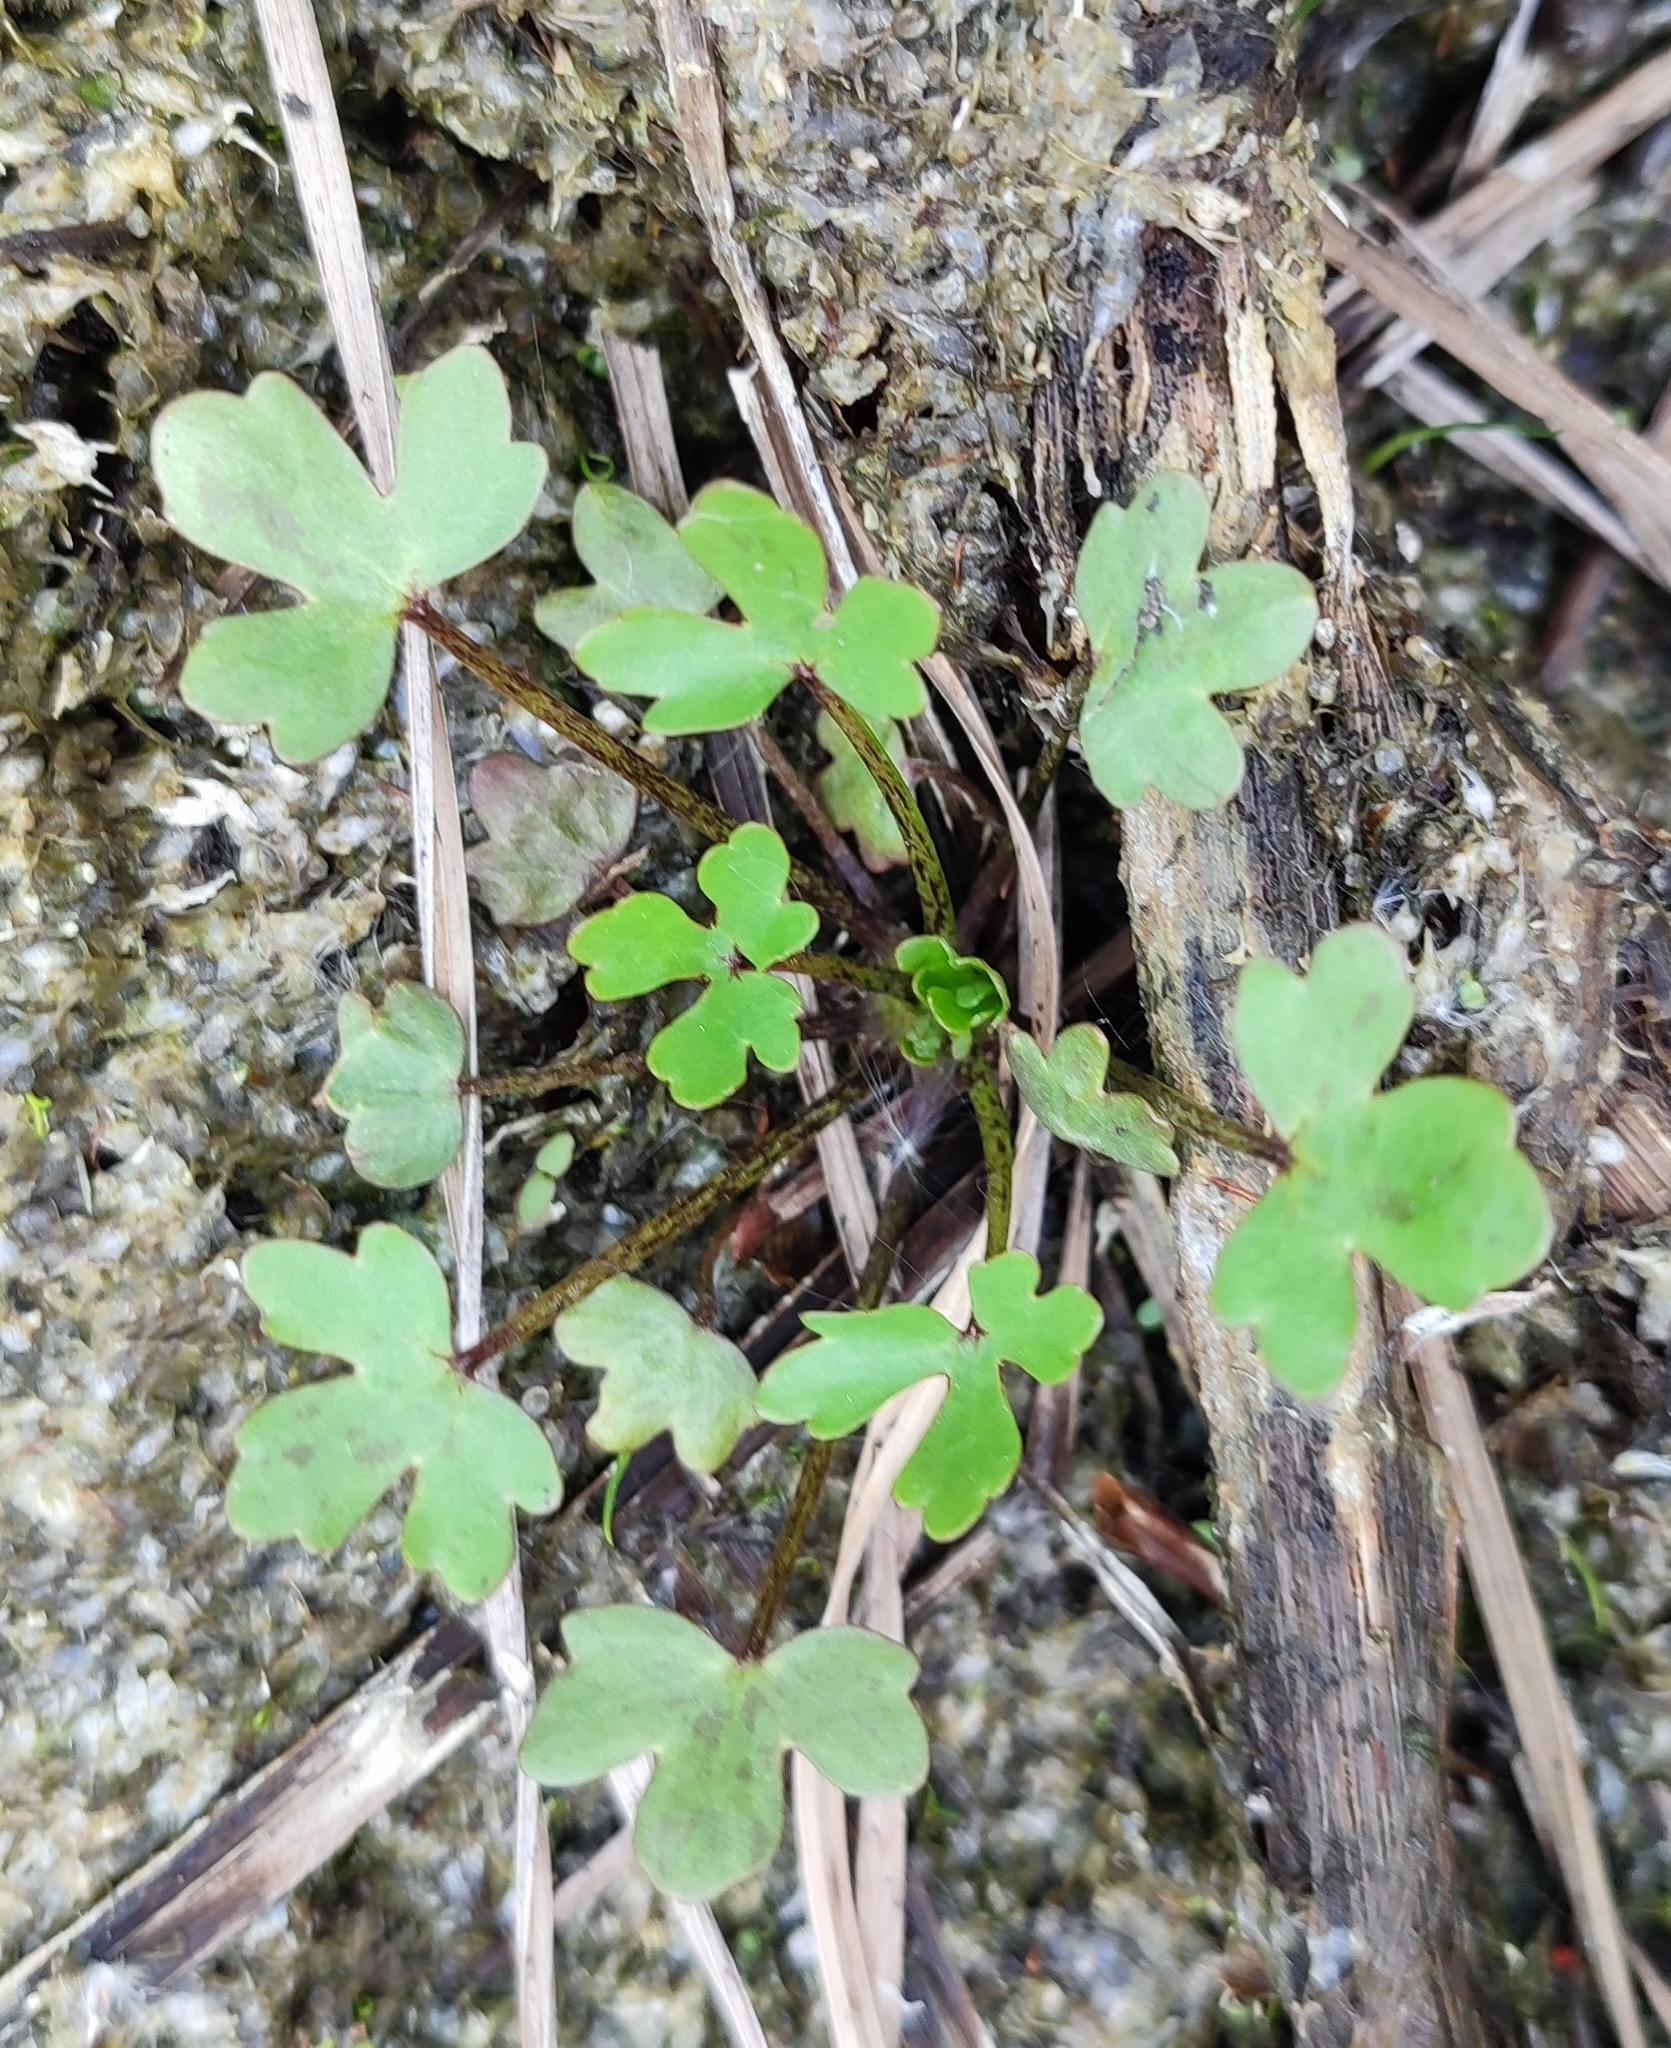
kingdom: Plantae
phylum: Tracheophyta
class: Magnoliopsida
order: Ranunculales
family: Ranunculaceae
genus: Ranunculus
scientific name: Ranunculus sceleratus
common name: Celery-leaved buttercup
